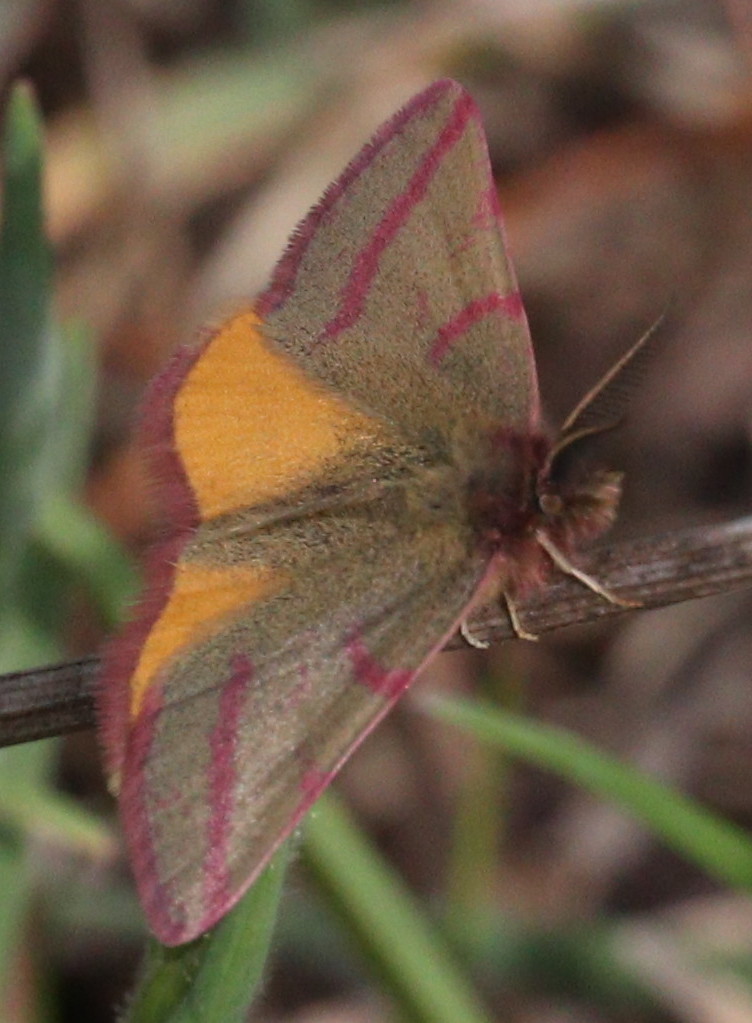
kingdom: Animalia
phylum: Arthropoda
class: Insecta
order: Lepidoptera
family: Geometridae
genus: Lythria
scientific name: Lythria purpuraria
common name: Purple-barred yellow
